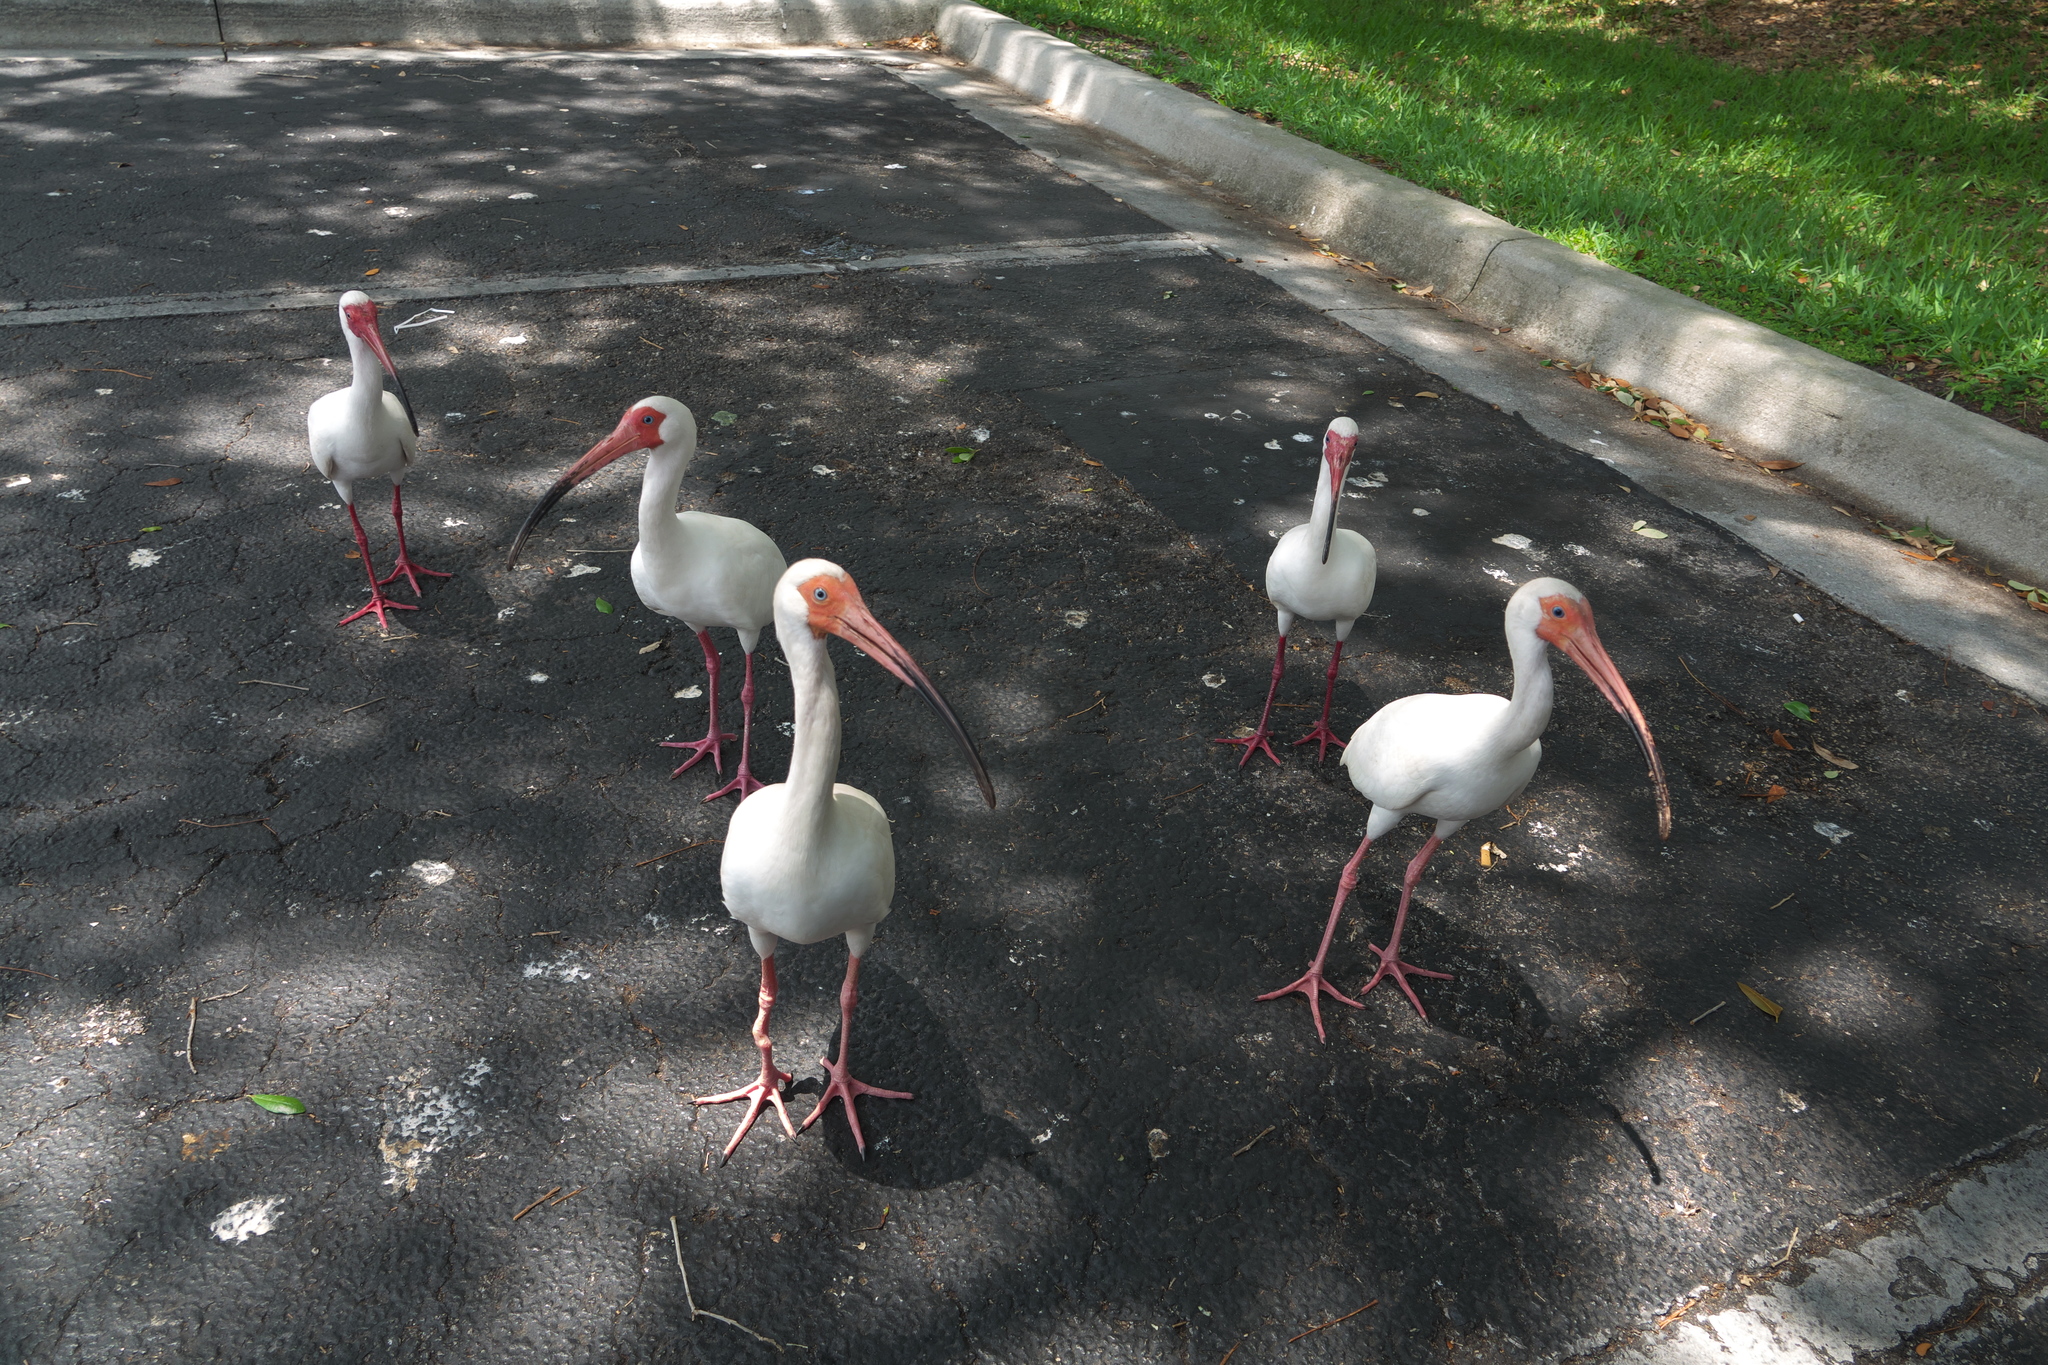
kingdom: Animalia
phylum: Chordata
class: Aves
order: Pelecaniformes
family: Threskiornithidae
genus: Eudocimus
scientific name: Eudocimus albus
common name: White ibis
